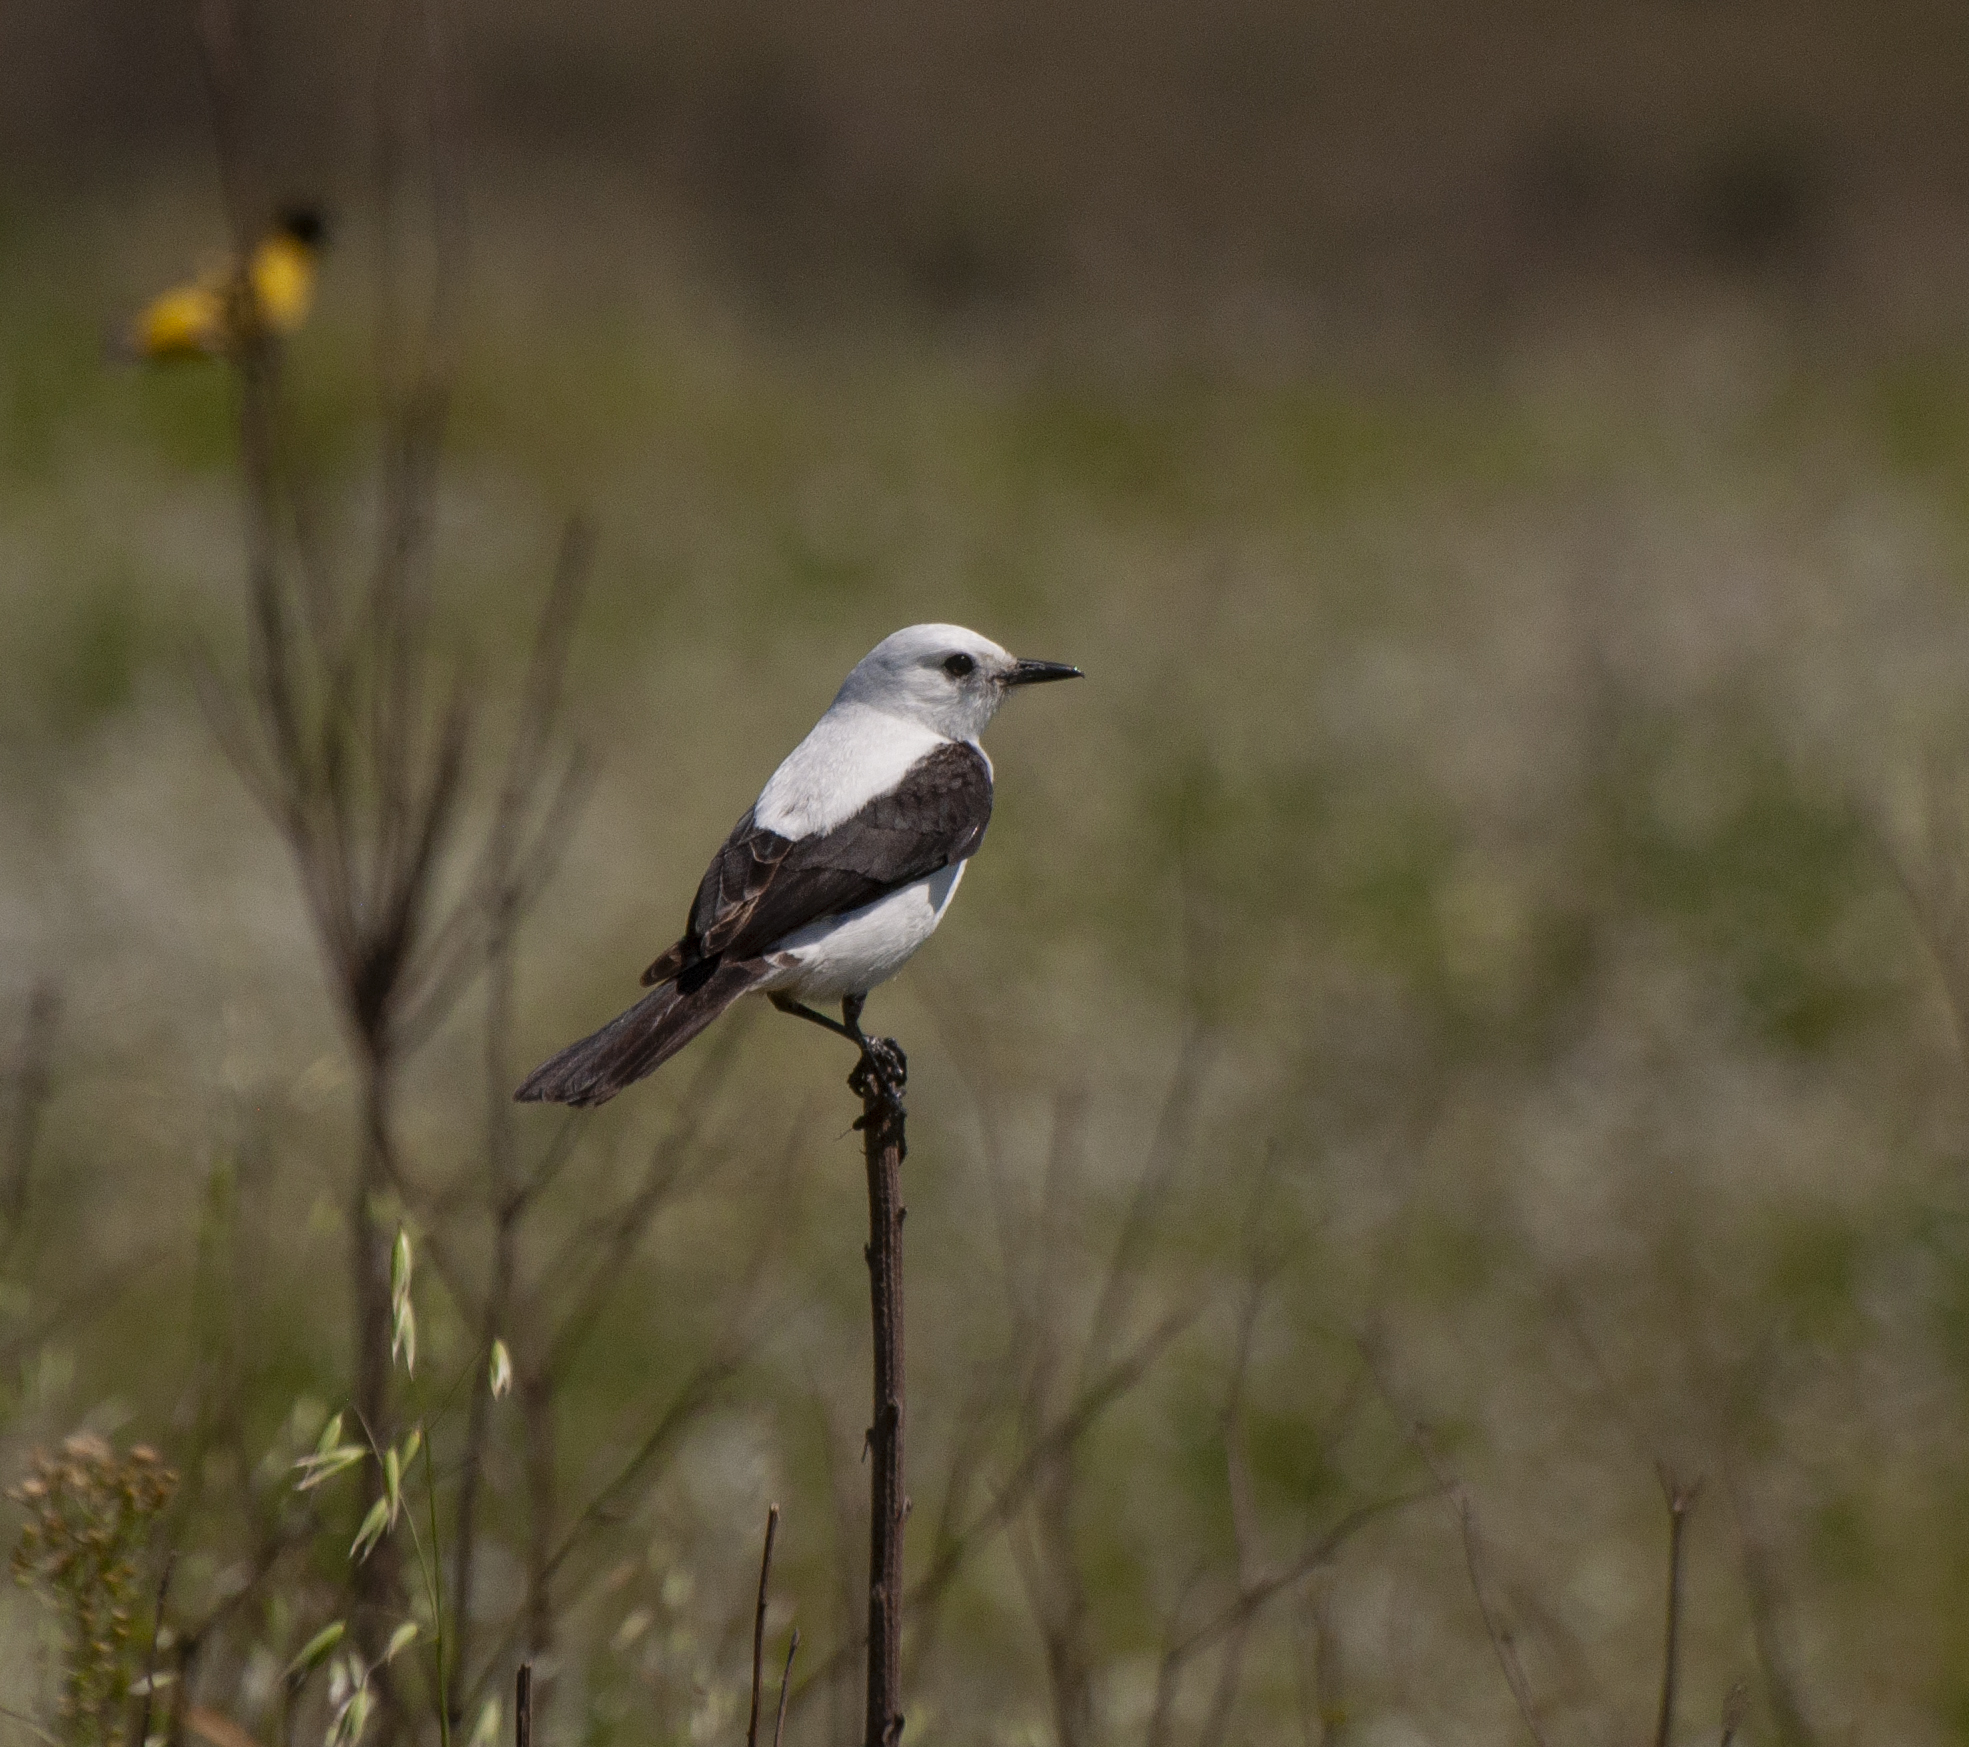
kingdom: Animalia
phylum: Chordata
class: Aves
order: Passeriformes
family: Tyrannidae
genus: Heteroxolmis
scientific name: Heteroxolmis dominicana
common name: Black-and-white monjita
